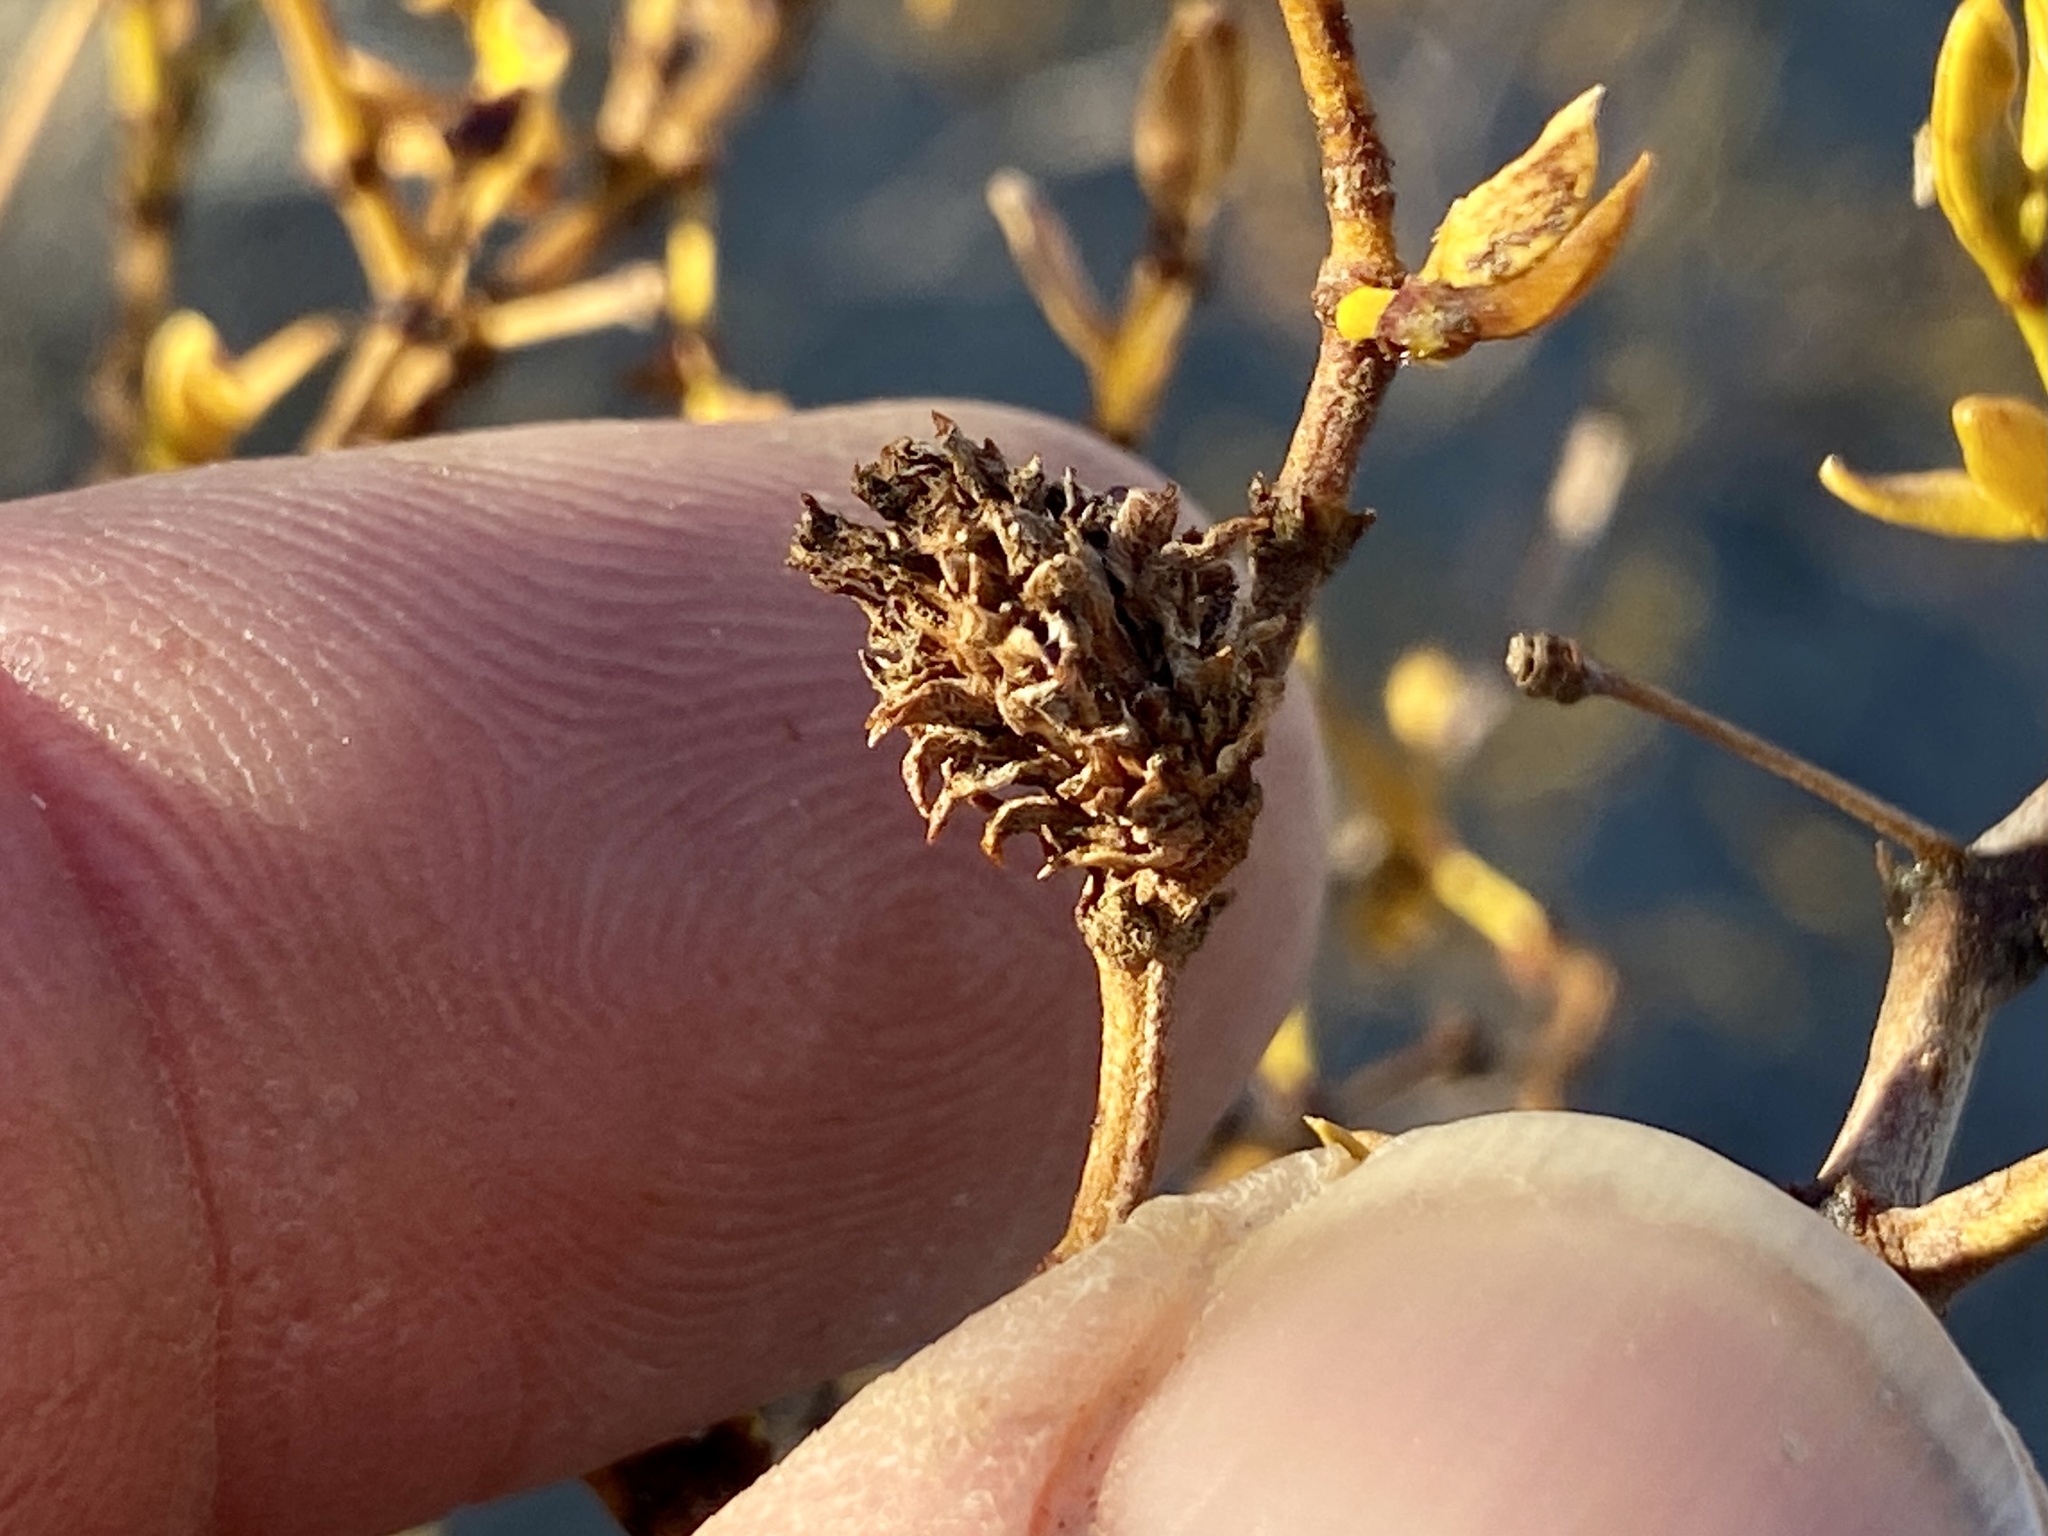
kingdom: Animalia
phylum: Arthropoda
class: Insecta
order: Diptera
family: Cecidomyiidae
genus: Asphondylia
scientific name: Asphondylia rosetta
